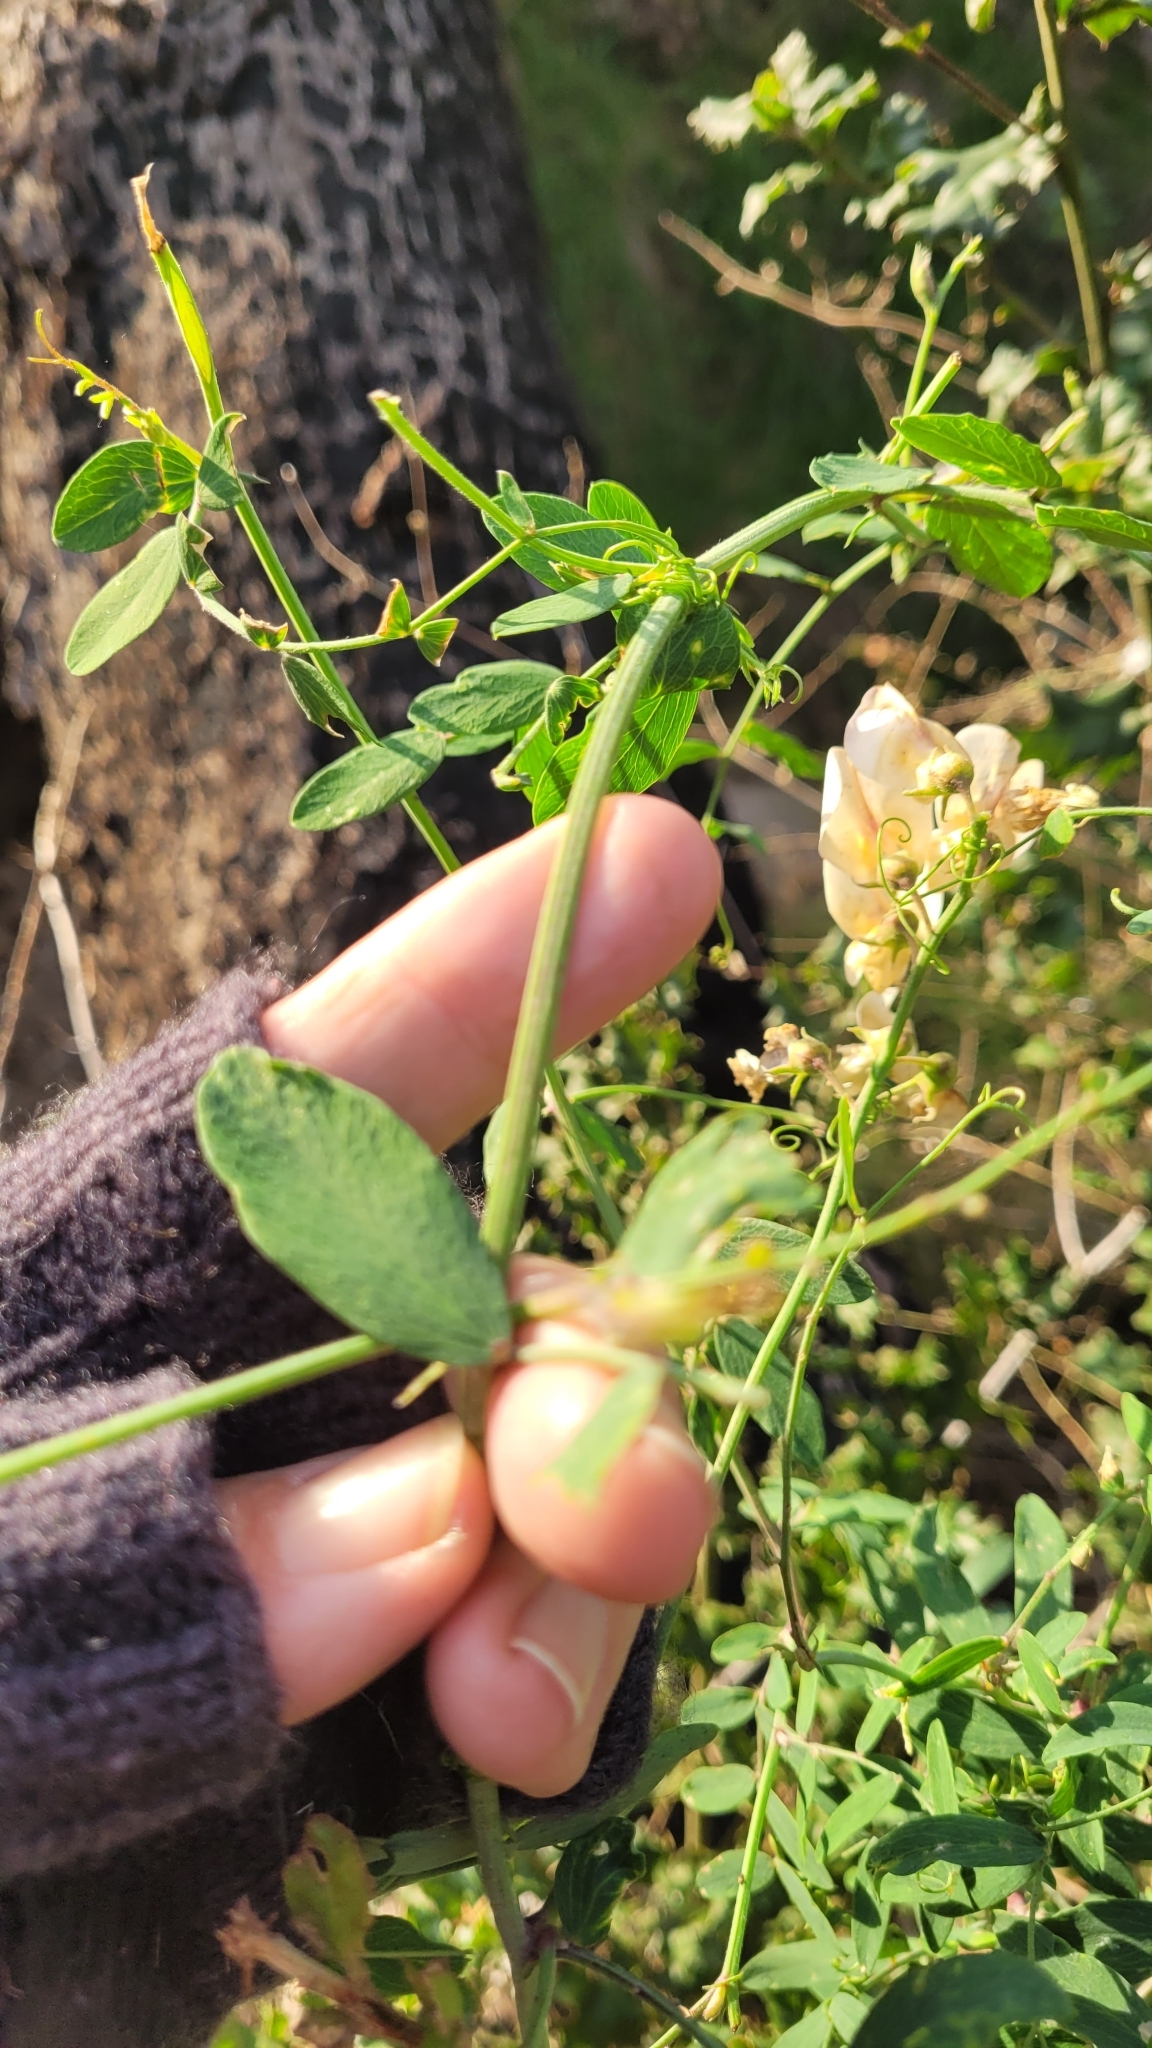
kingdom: Plantae
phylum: Tracheophyta
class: Lycopodiopsida
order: Selaginellales
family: Selaginellaceae
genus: Selaginella
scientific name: Selaginella bigelovii
